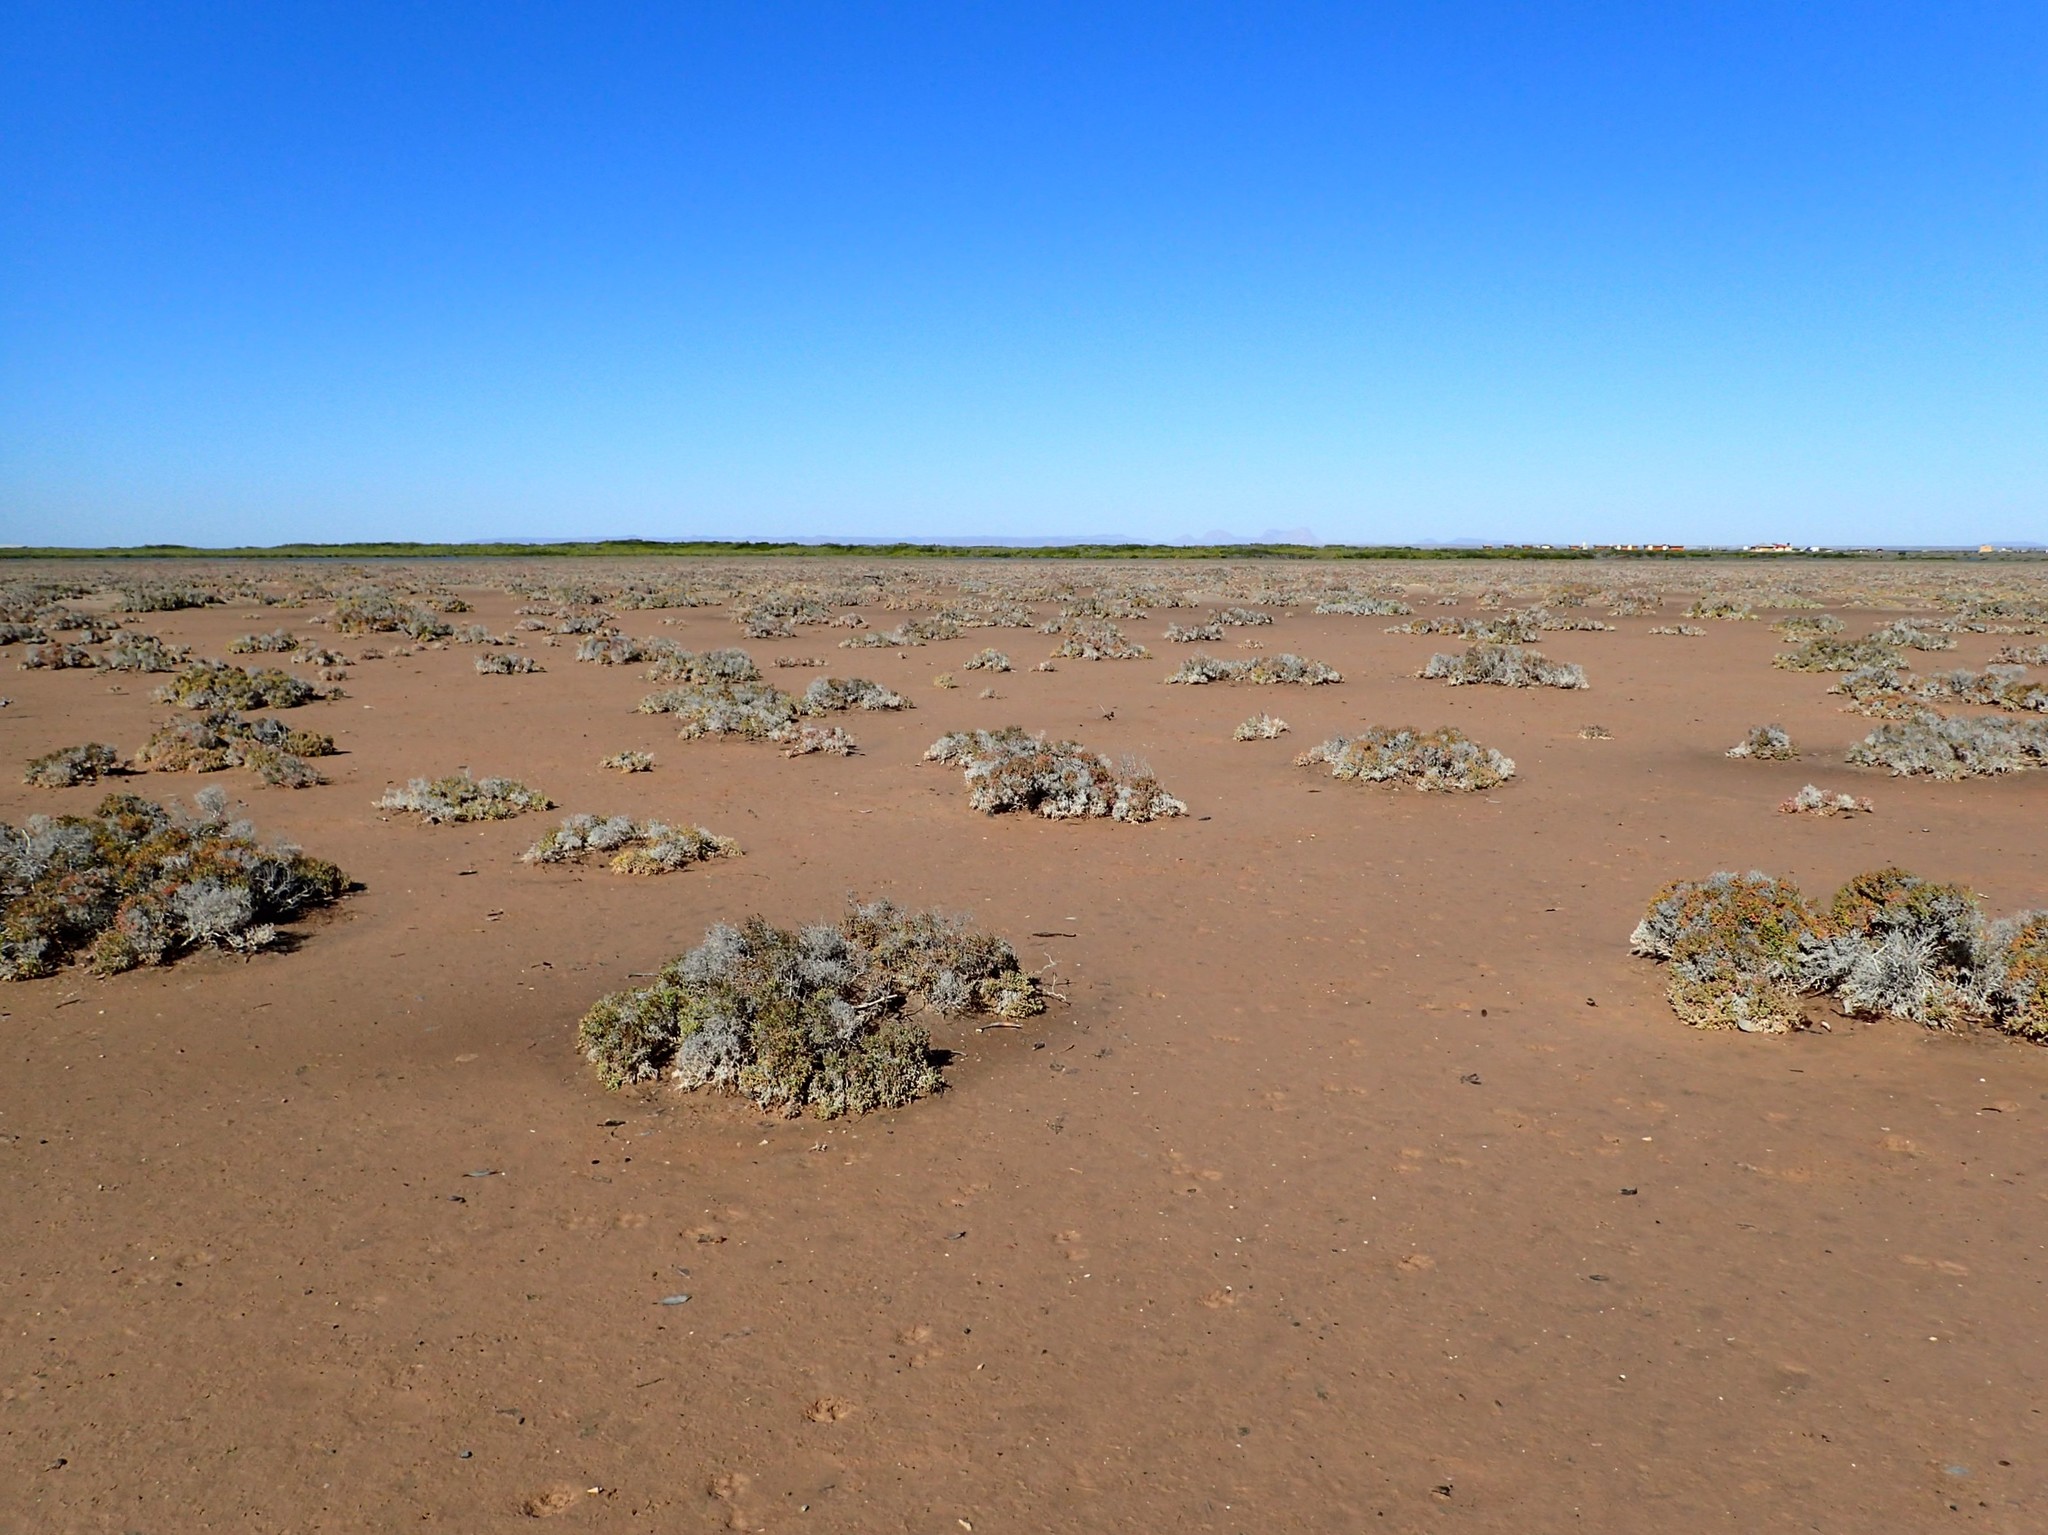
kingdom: Plantae
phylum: Tracheophyta
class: Magnoliopsida
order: Caryophyllales
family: Amaranthaceae
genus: Allenrolfea
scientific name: Allenrolfea occidentalis
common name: Iodine-bush
